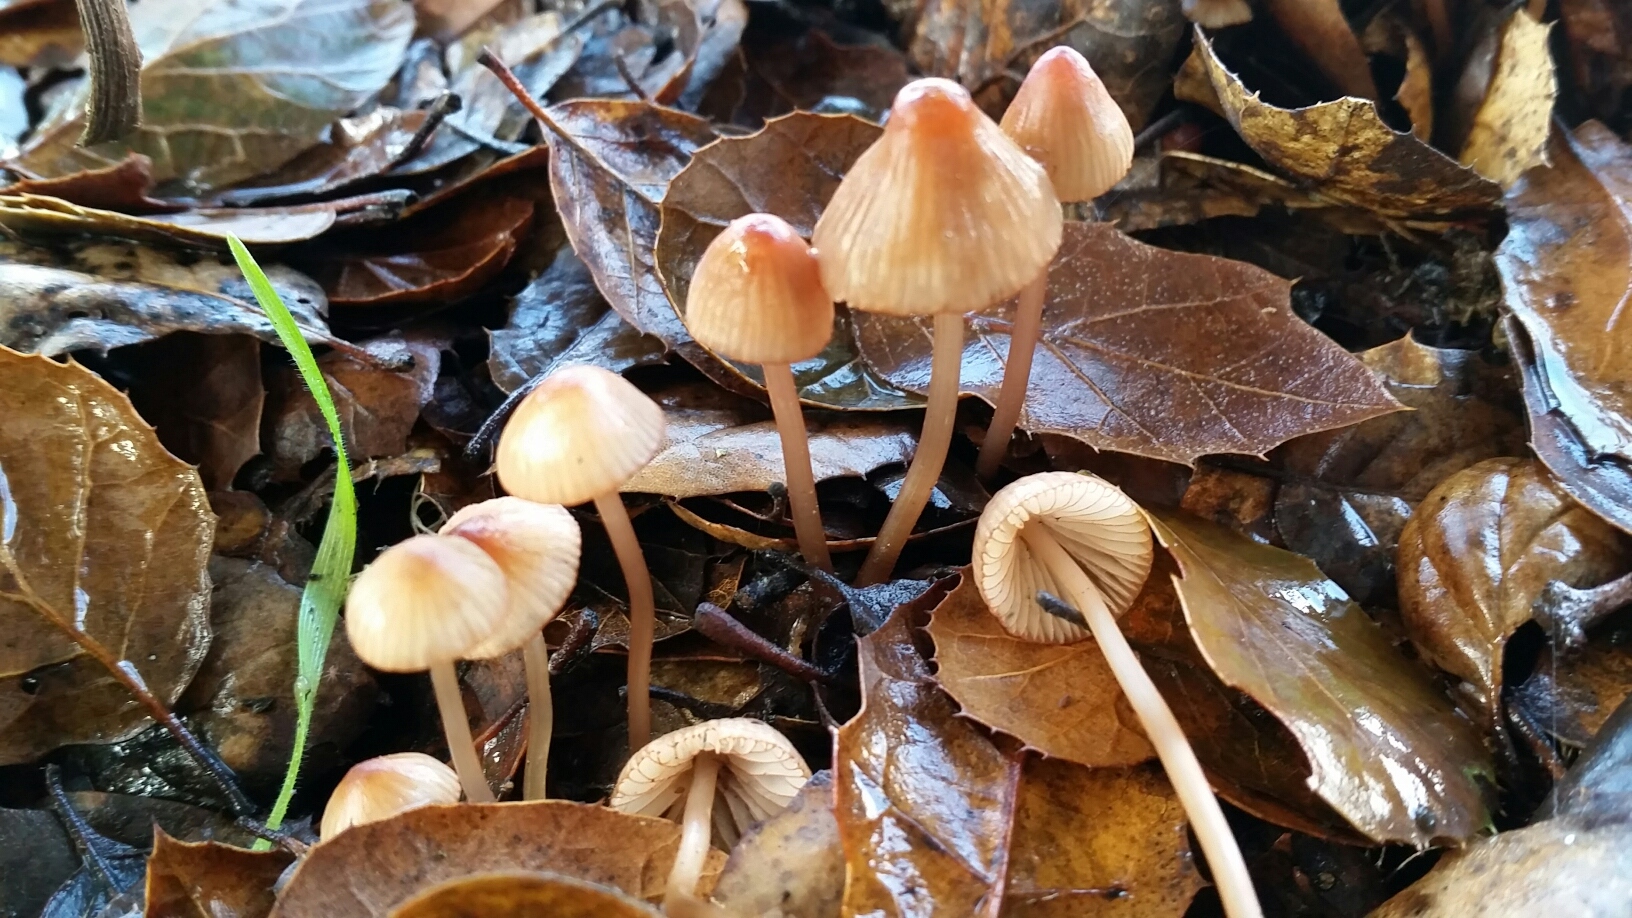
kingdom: Fungi
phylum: Basidiomycota
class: Agaricomycetes
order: Agaricales
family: Mycenaceae
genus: Mycena
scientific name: Mycena
